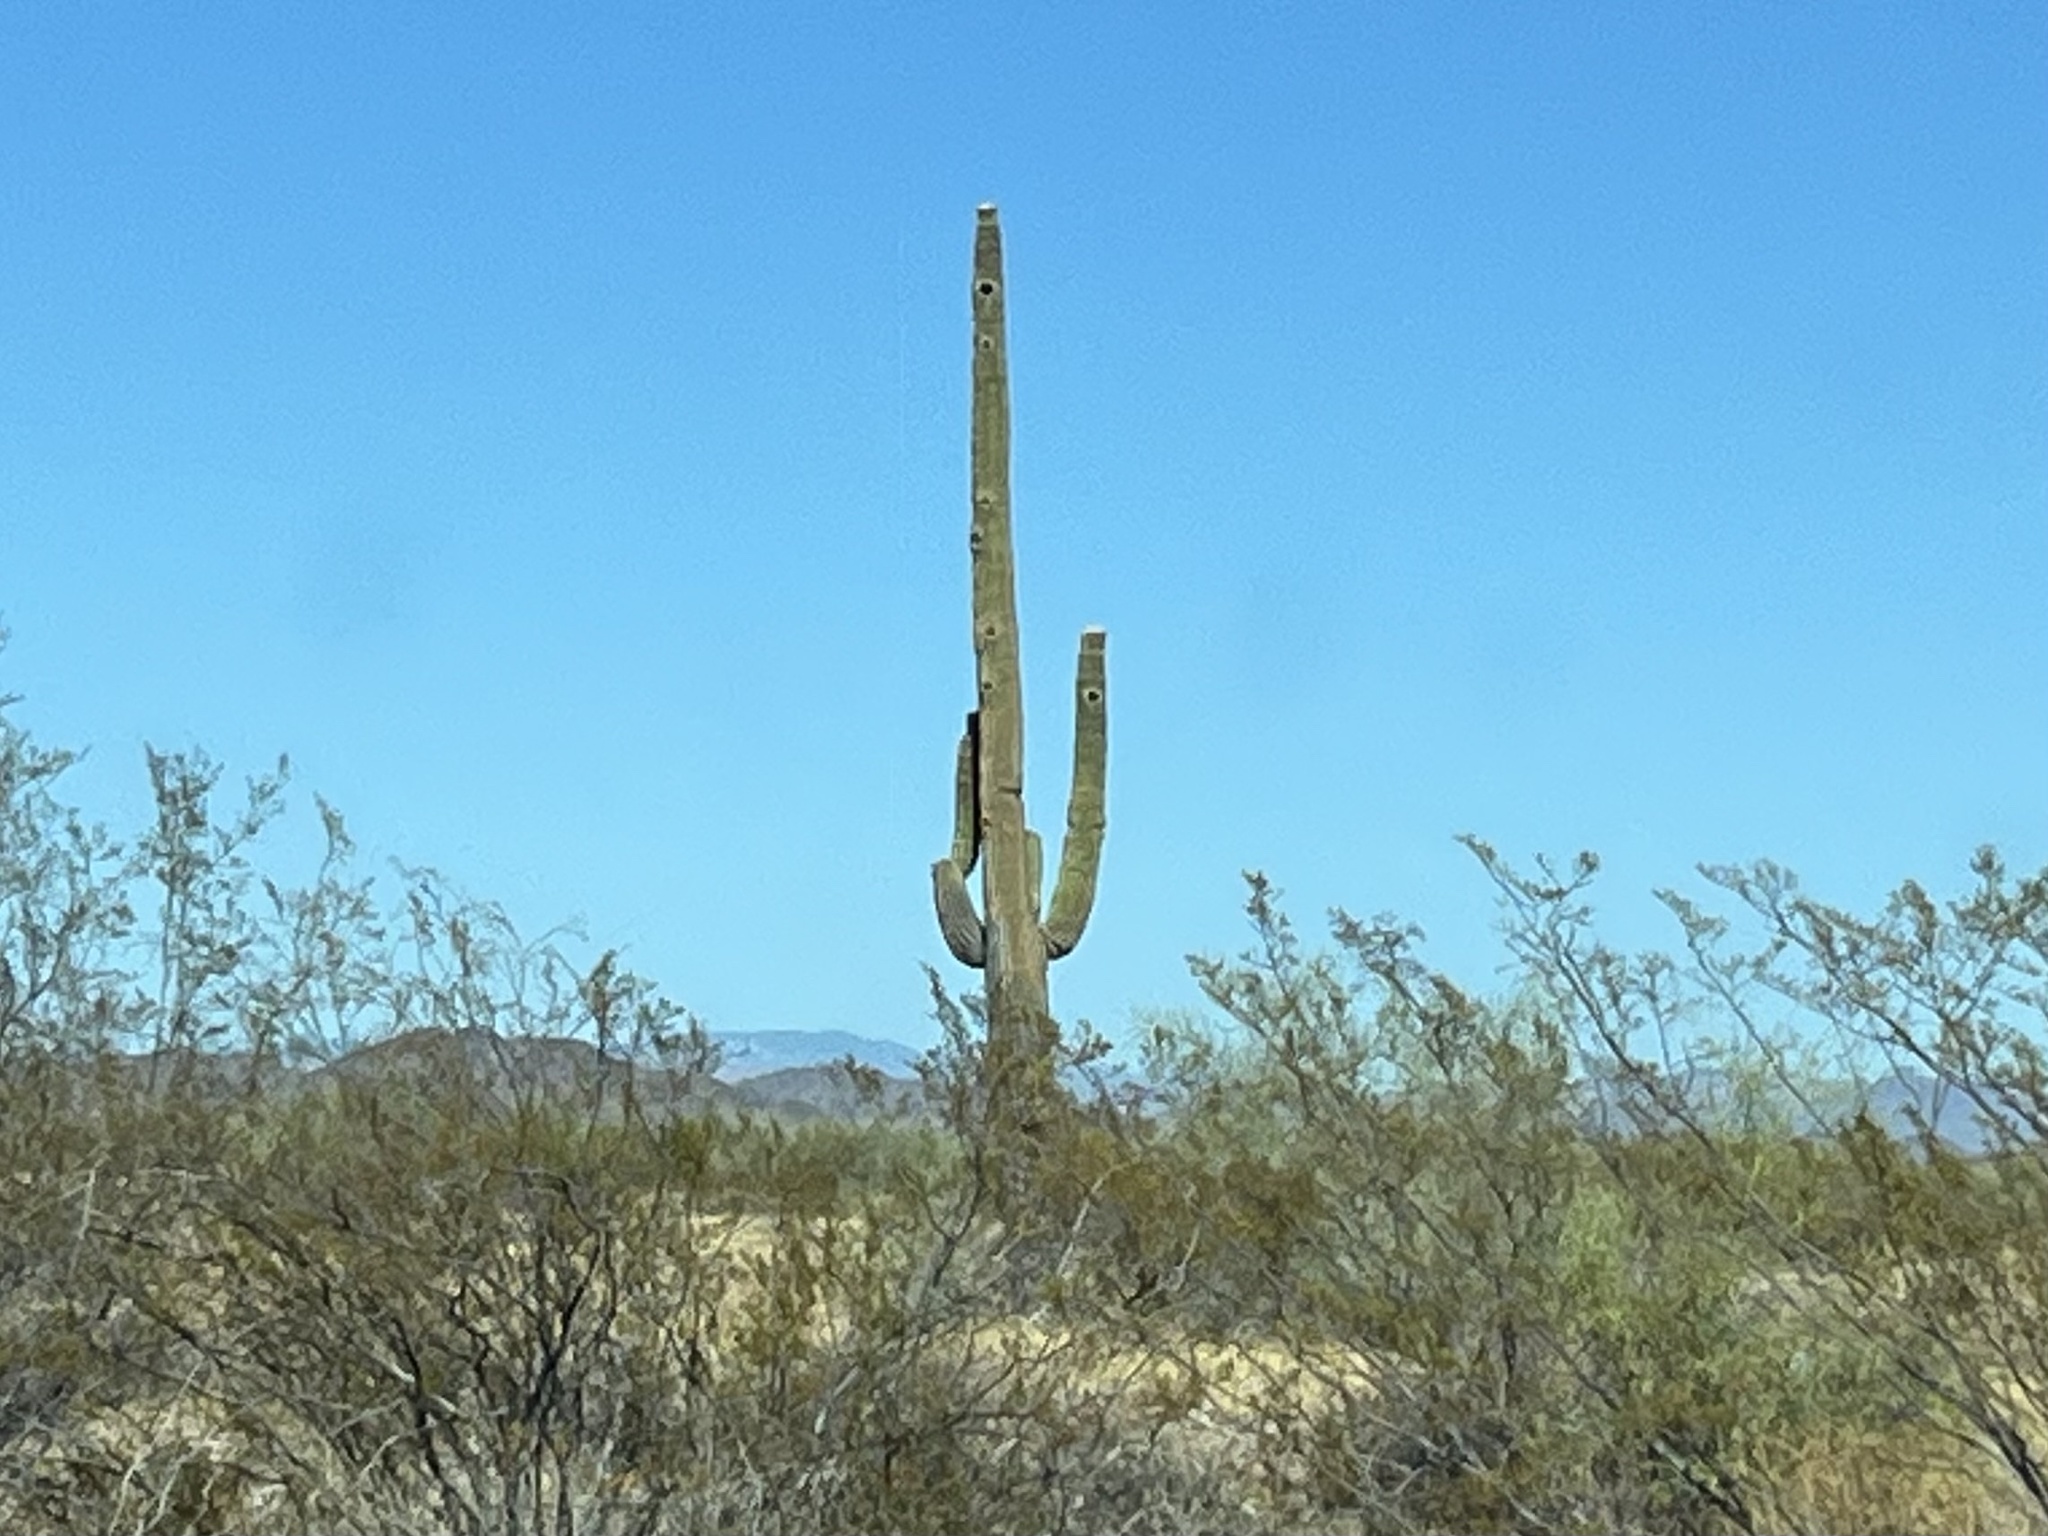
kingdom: Plantae
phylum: Tracheophyta
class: Magnoliopsida
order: Caryophyllales
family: Cactaceae
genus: Carnegiea
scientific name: Carnegiea gigantea
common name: Saguaro
